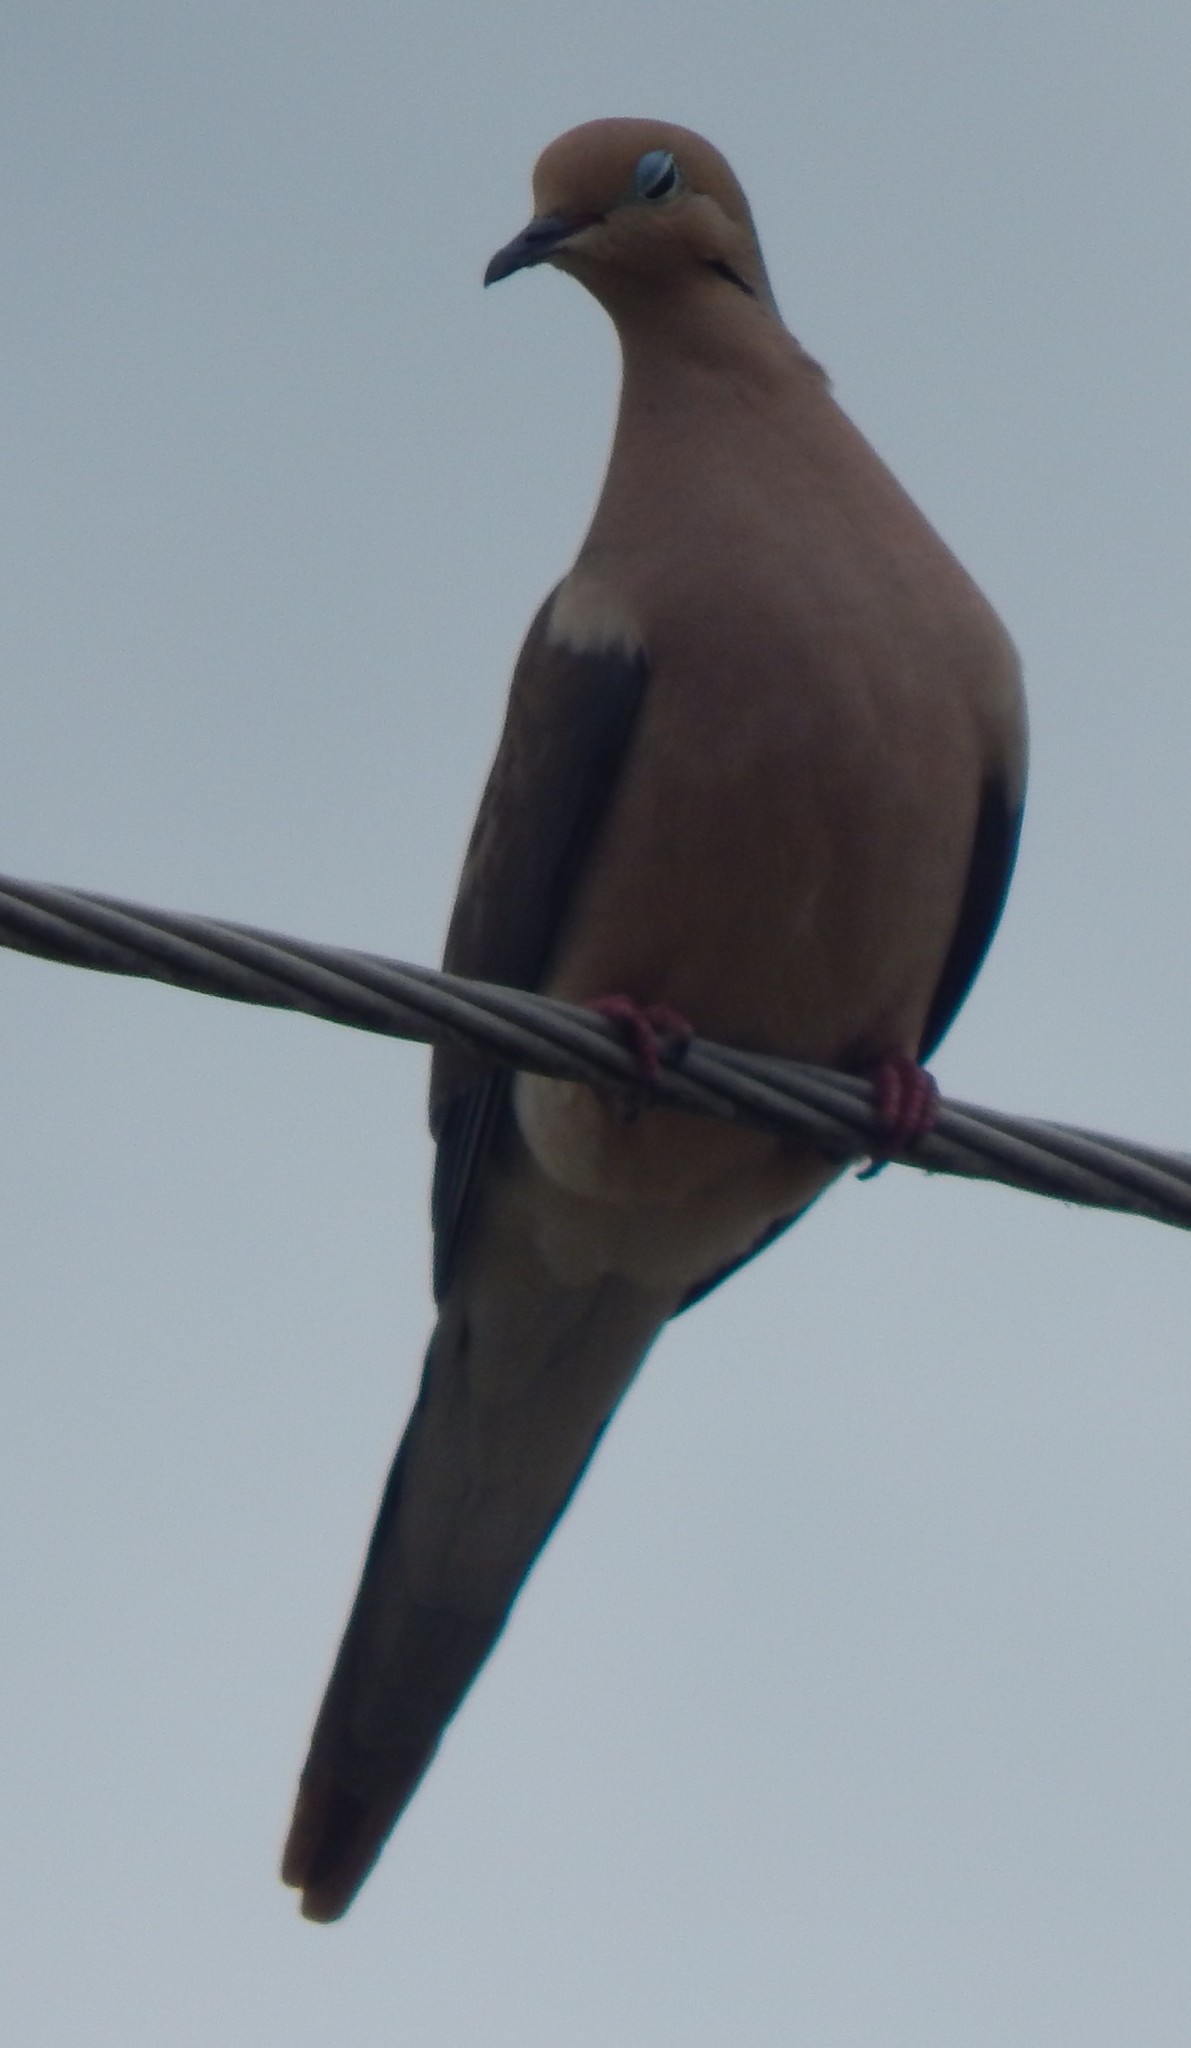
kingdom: Animalia
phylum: Chordata
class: Aves
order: Columbiformes
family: Columbidae
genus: Zenaida
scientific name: Zenaida macroura
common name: Mourning dove
